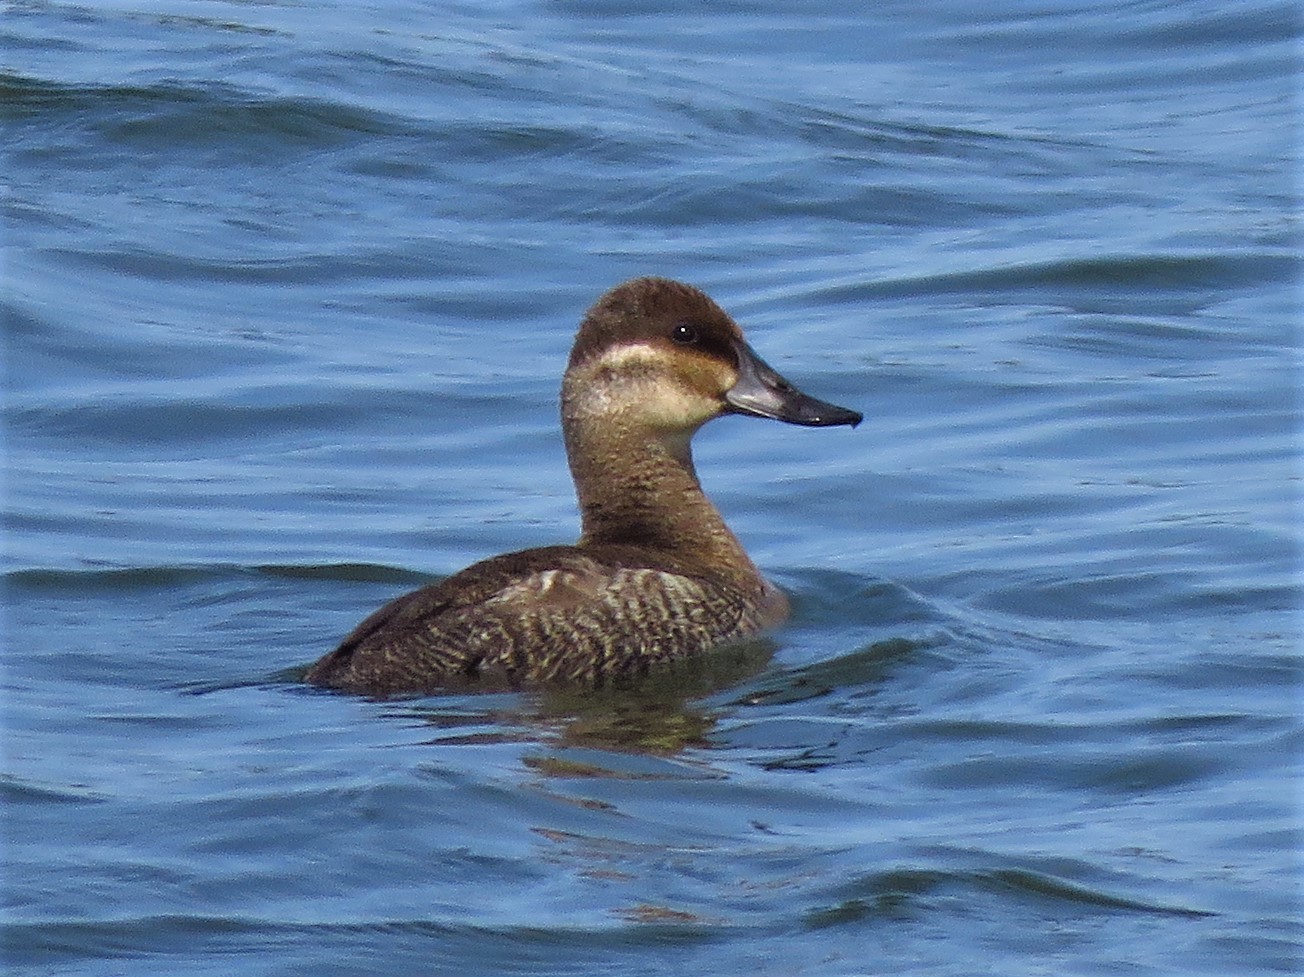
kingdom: Animalia
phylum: Chordata
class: Aves
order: Anseriformes
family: Anatidae
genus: Oxyura
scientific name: Oxyura jamaicensis
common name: Ruddy duck
